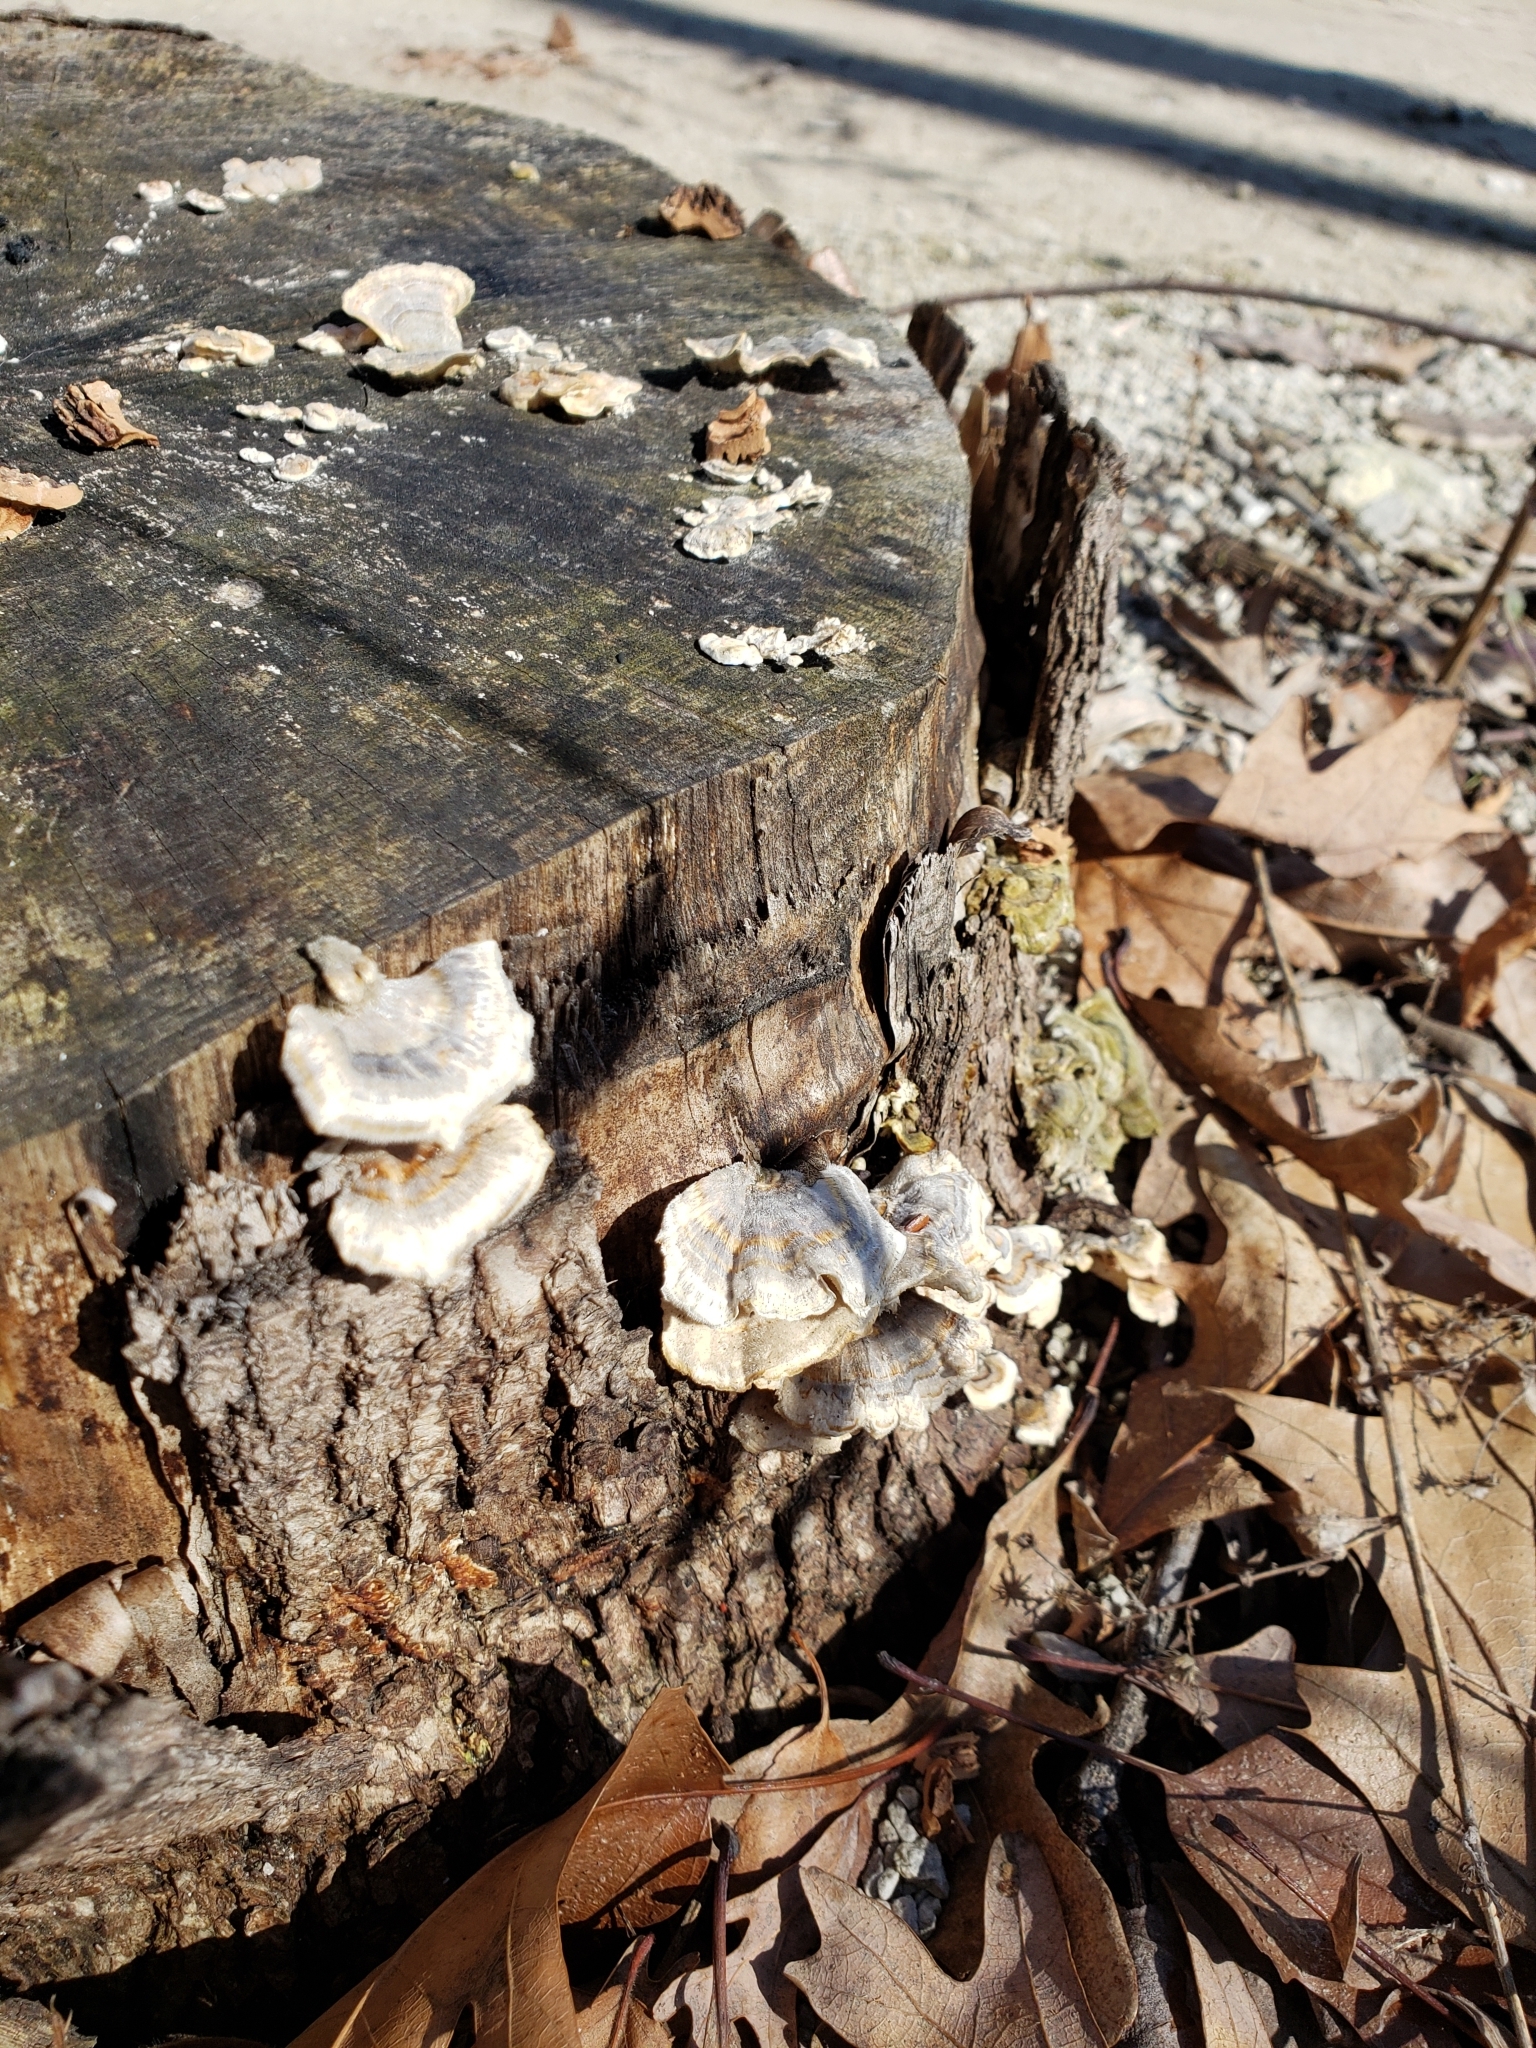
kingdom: Fungi
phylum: Basidiomycota
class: Agaricomycetes
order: Polyporales
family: Polyporaceae
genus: Trametes
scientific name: Trametes versicolor
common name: Turkeytail
